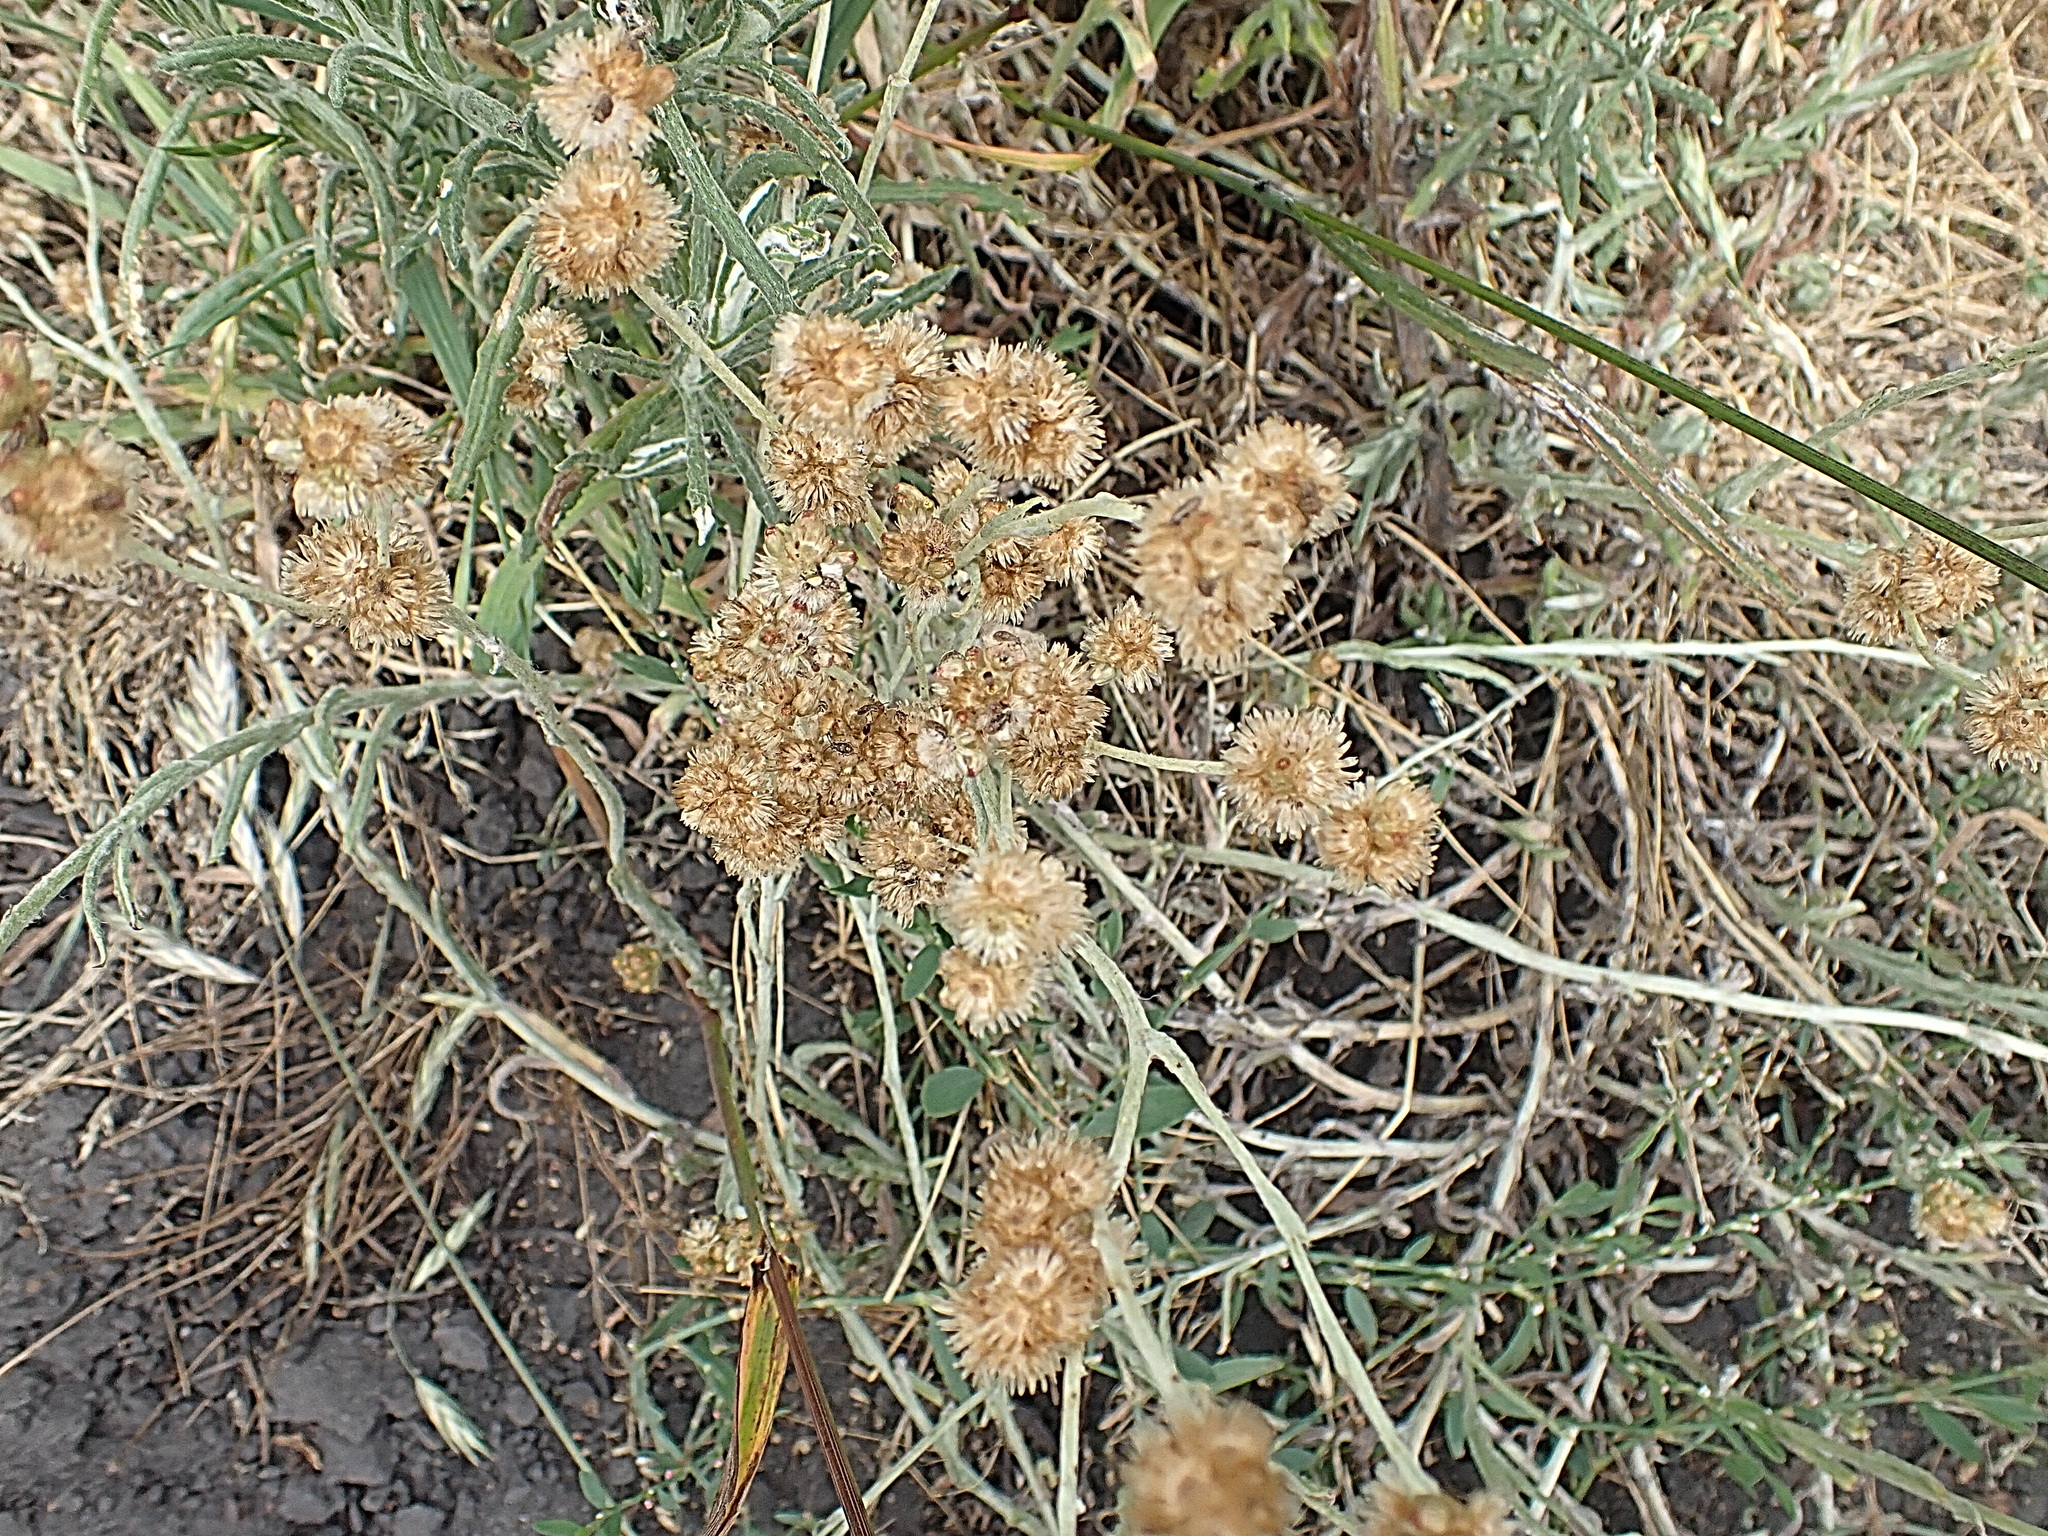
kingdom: Plantae
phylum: Tracheophyta
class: Magnoliopsida
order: Asterales
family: Asteraceae
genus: Helichrysum
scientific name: Helichrysum luteoalbum
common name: Daisy
